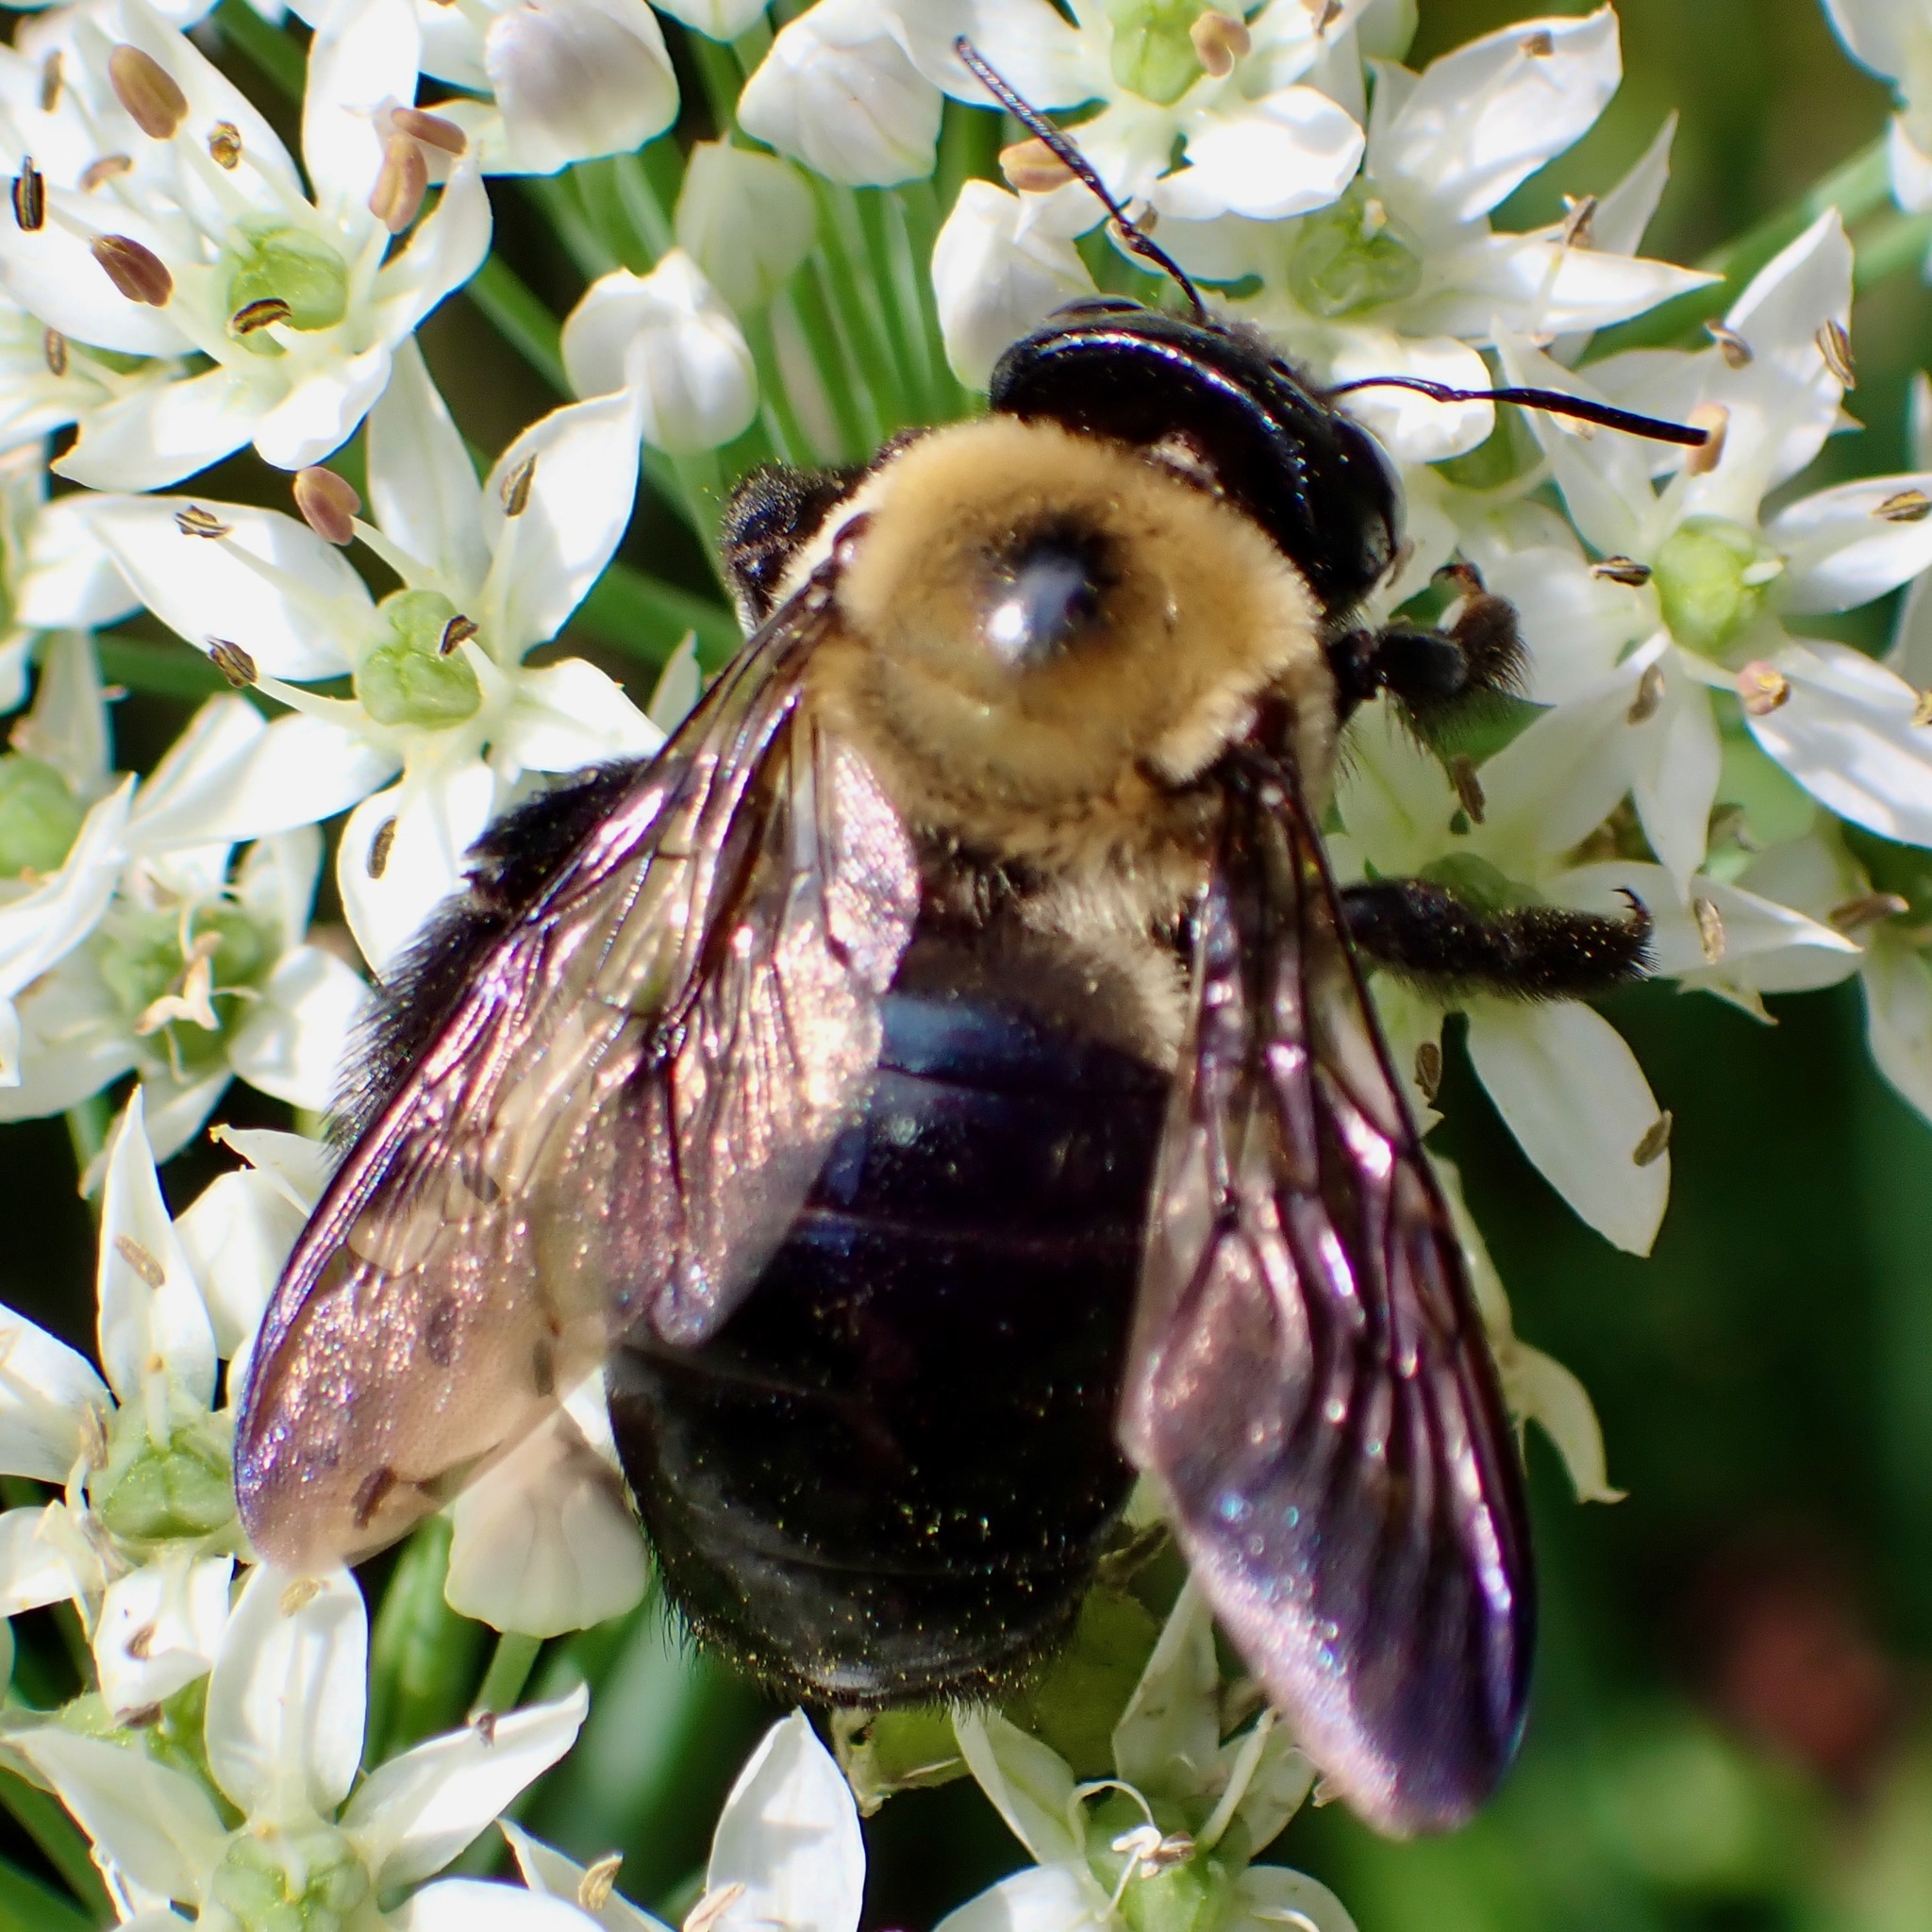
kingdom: Animalia
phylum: Arthropoda
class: Insecta
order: Hymenoptera
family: Apidae
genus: Xylocopa
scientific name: Xylocopa virginica
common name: Carpenter bee
